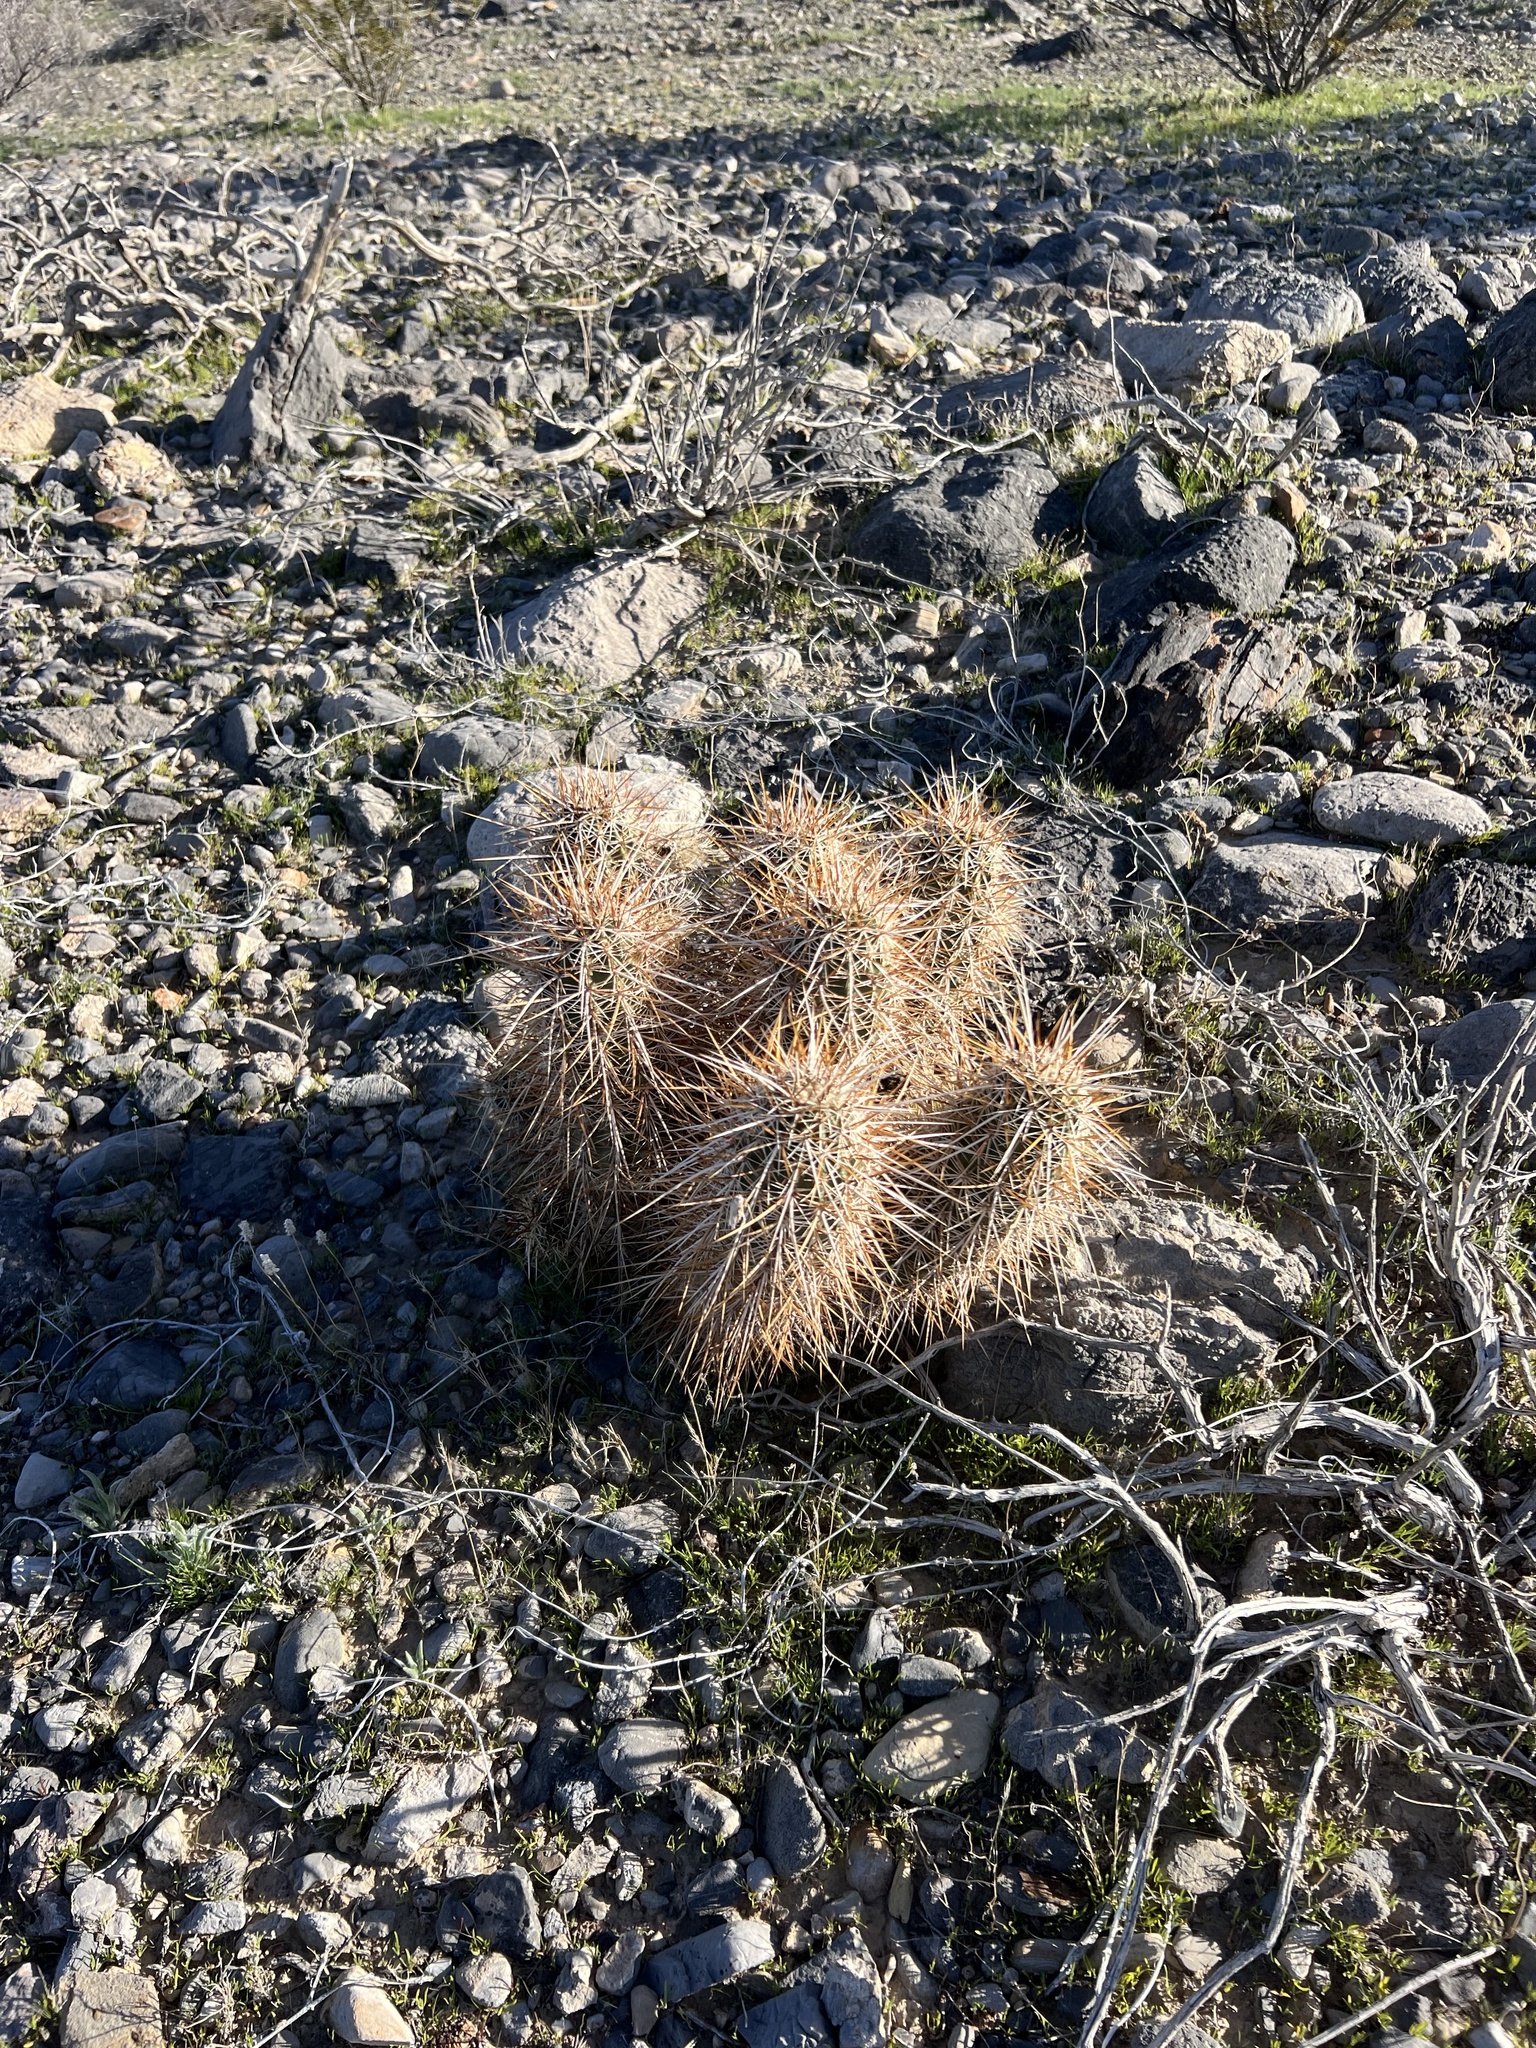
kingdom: Plantae
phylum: Tracheophyta
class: Magnoliopsida
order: Caryophyllales
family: Cactaceae
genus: Echinocereus
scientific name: Echinocereus engelmannii
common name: Engelmann's hedgehog cactus
